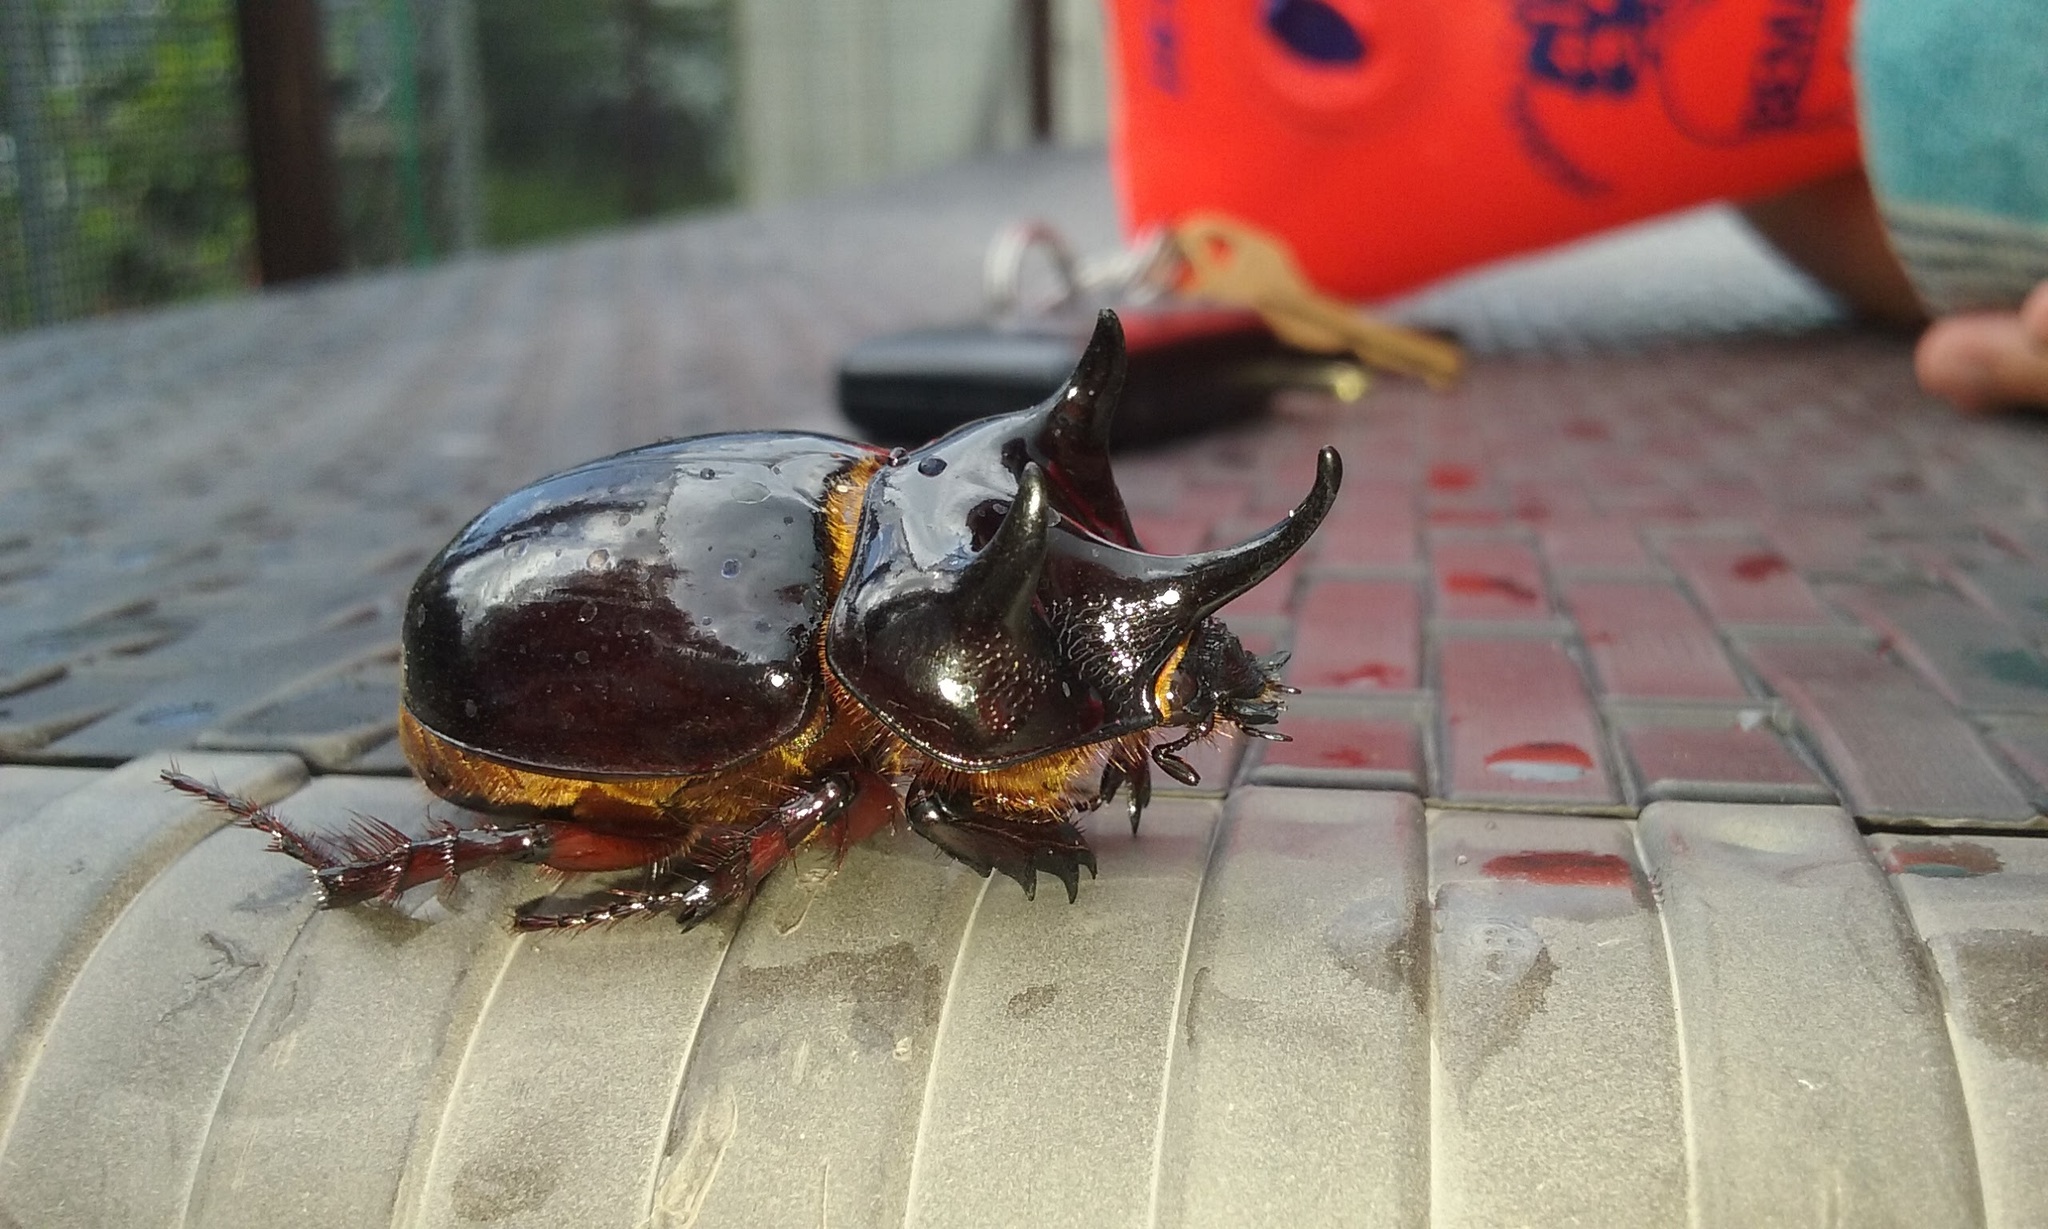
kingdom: Animalia
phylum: Arthropoda
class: Insecta
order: Coleoptera
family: Scarabaeidae
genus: Strategus
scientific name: Strategus antaeus
